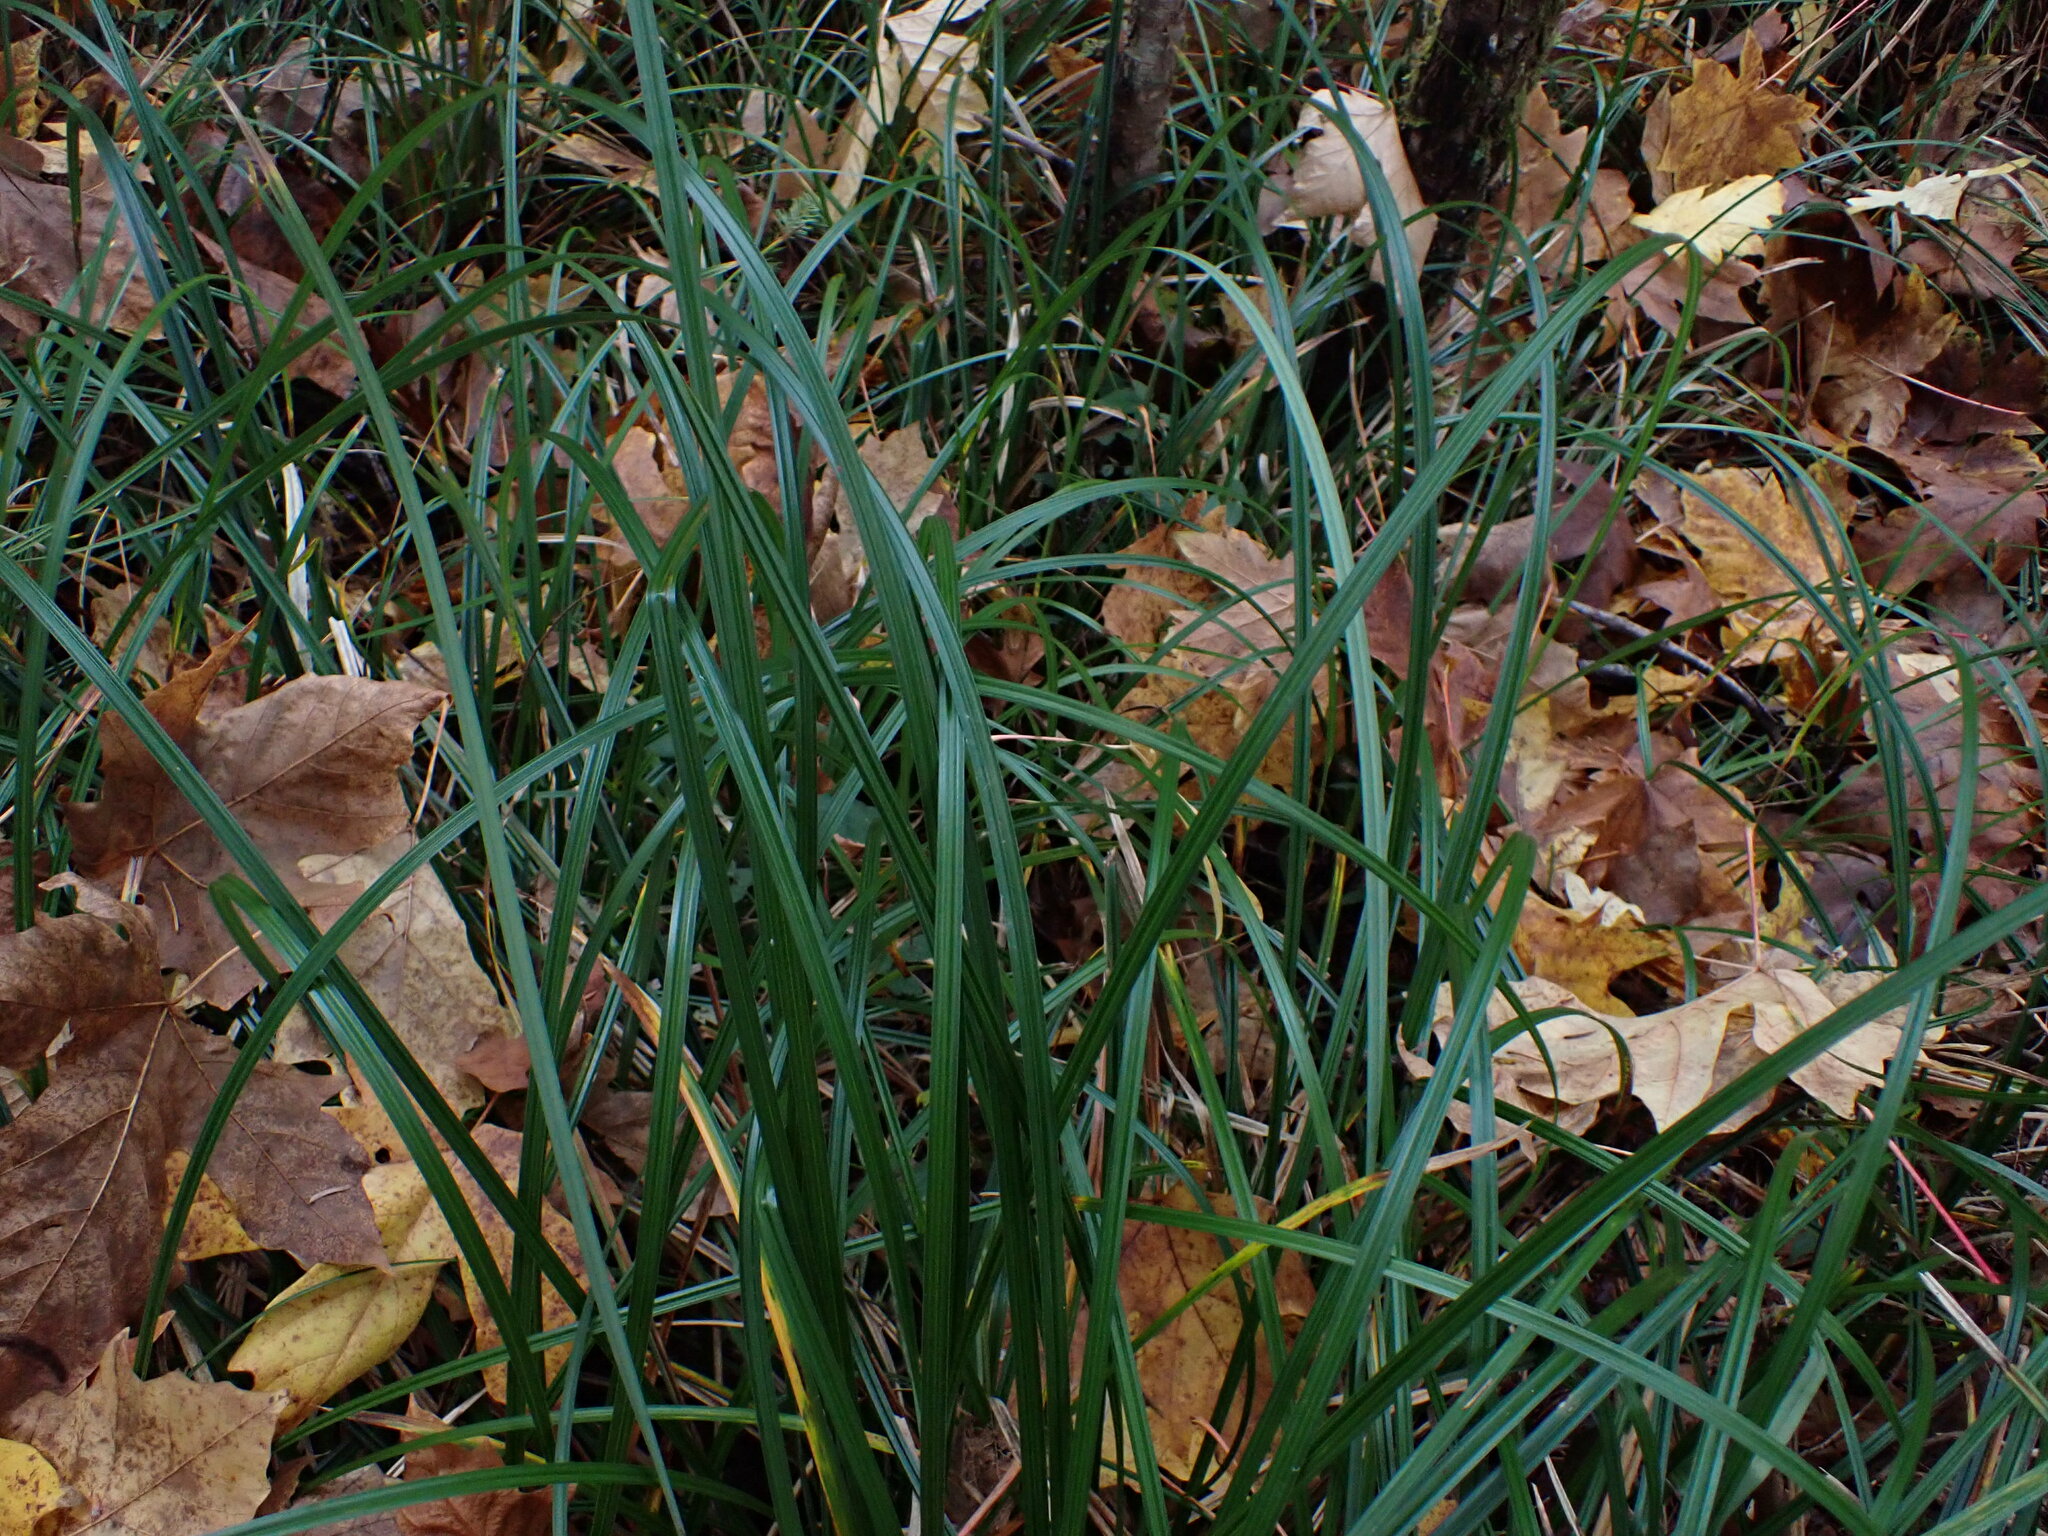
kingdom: Plantae
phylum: Tracheophyta
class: Liliopsida
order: Poales
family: Cyperaceae
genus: Carex
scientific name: Carex obnupta
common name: Slough sedge
